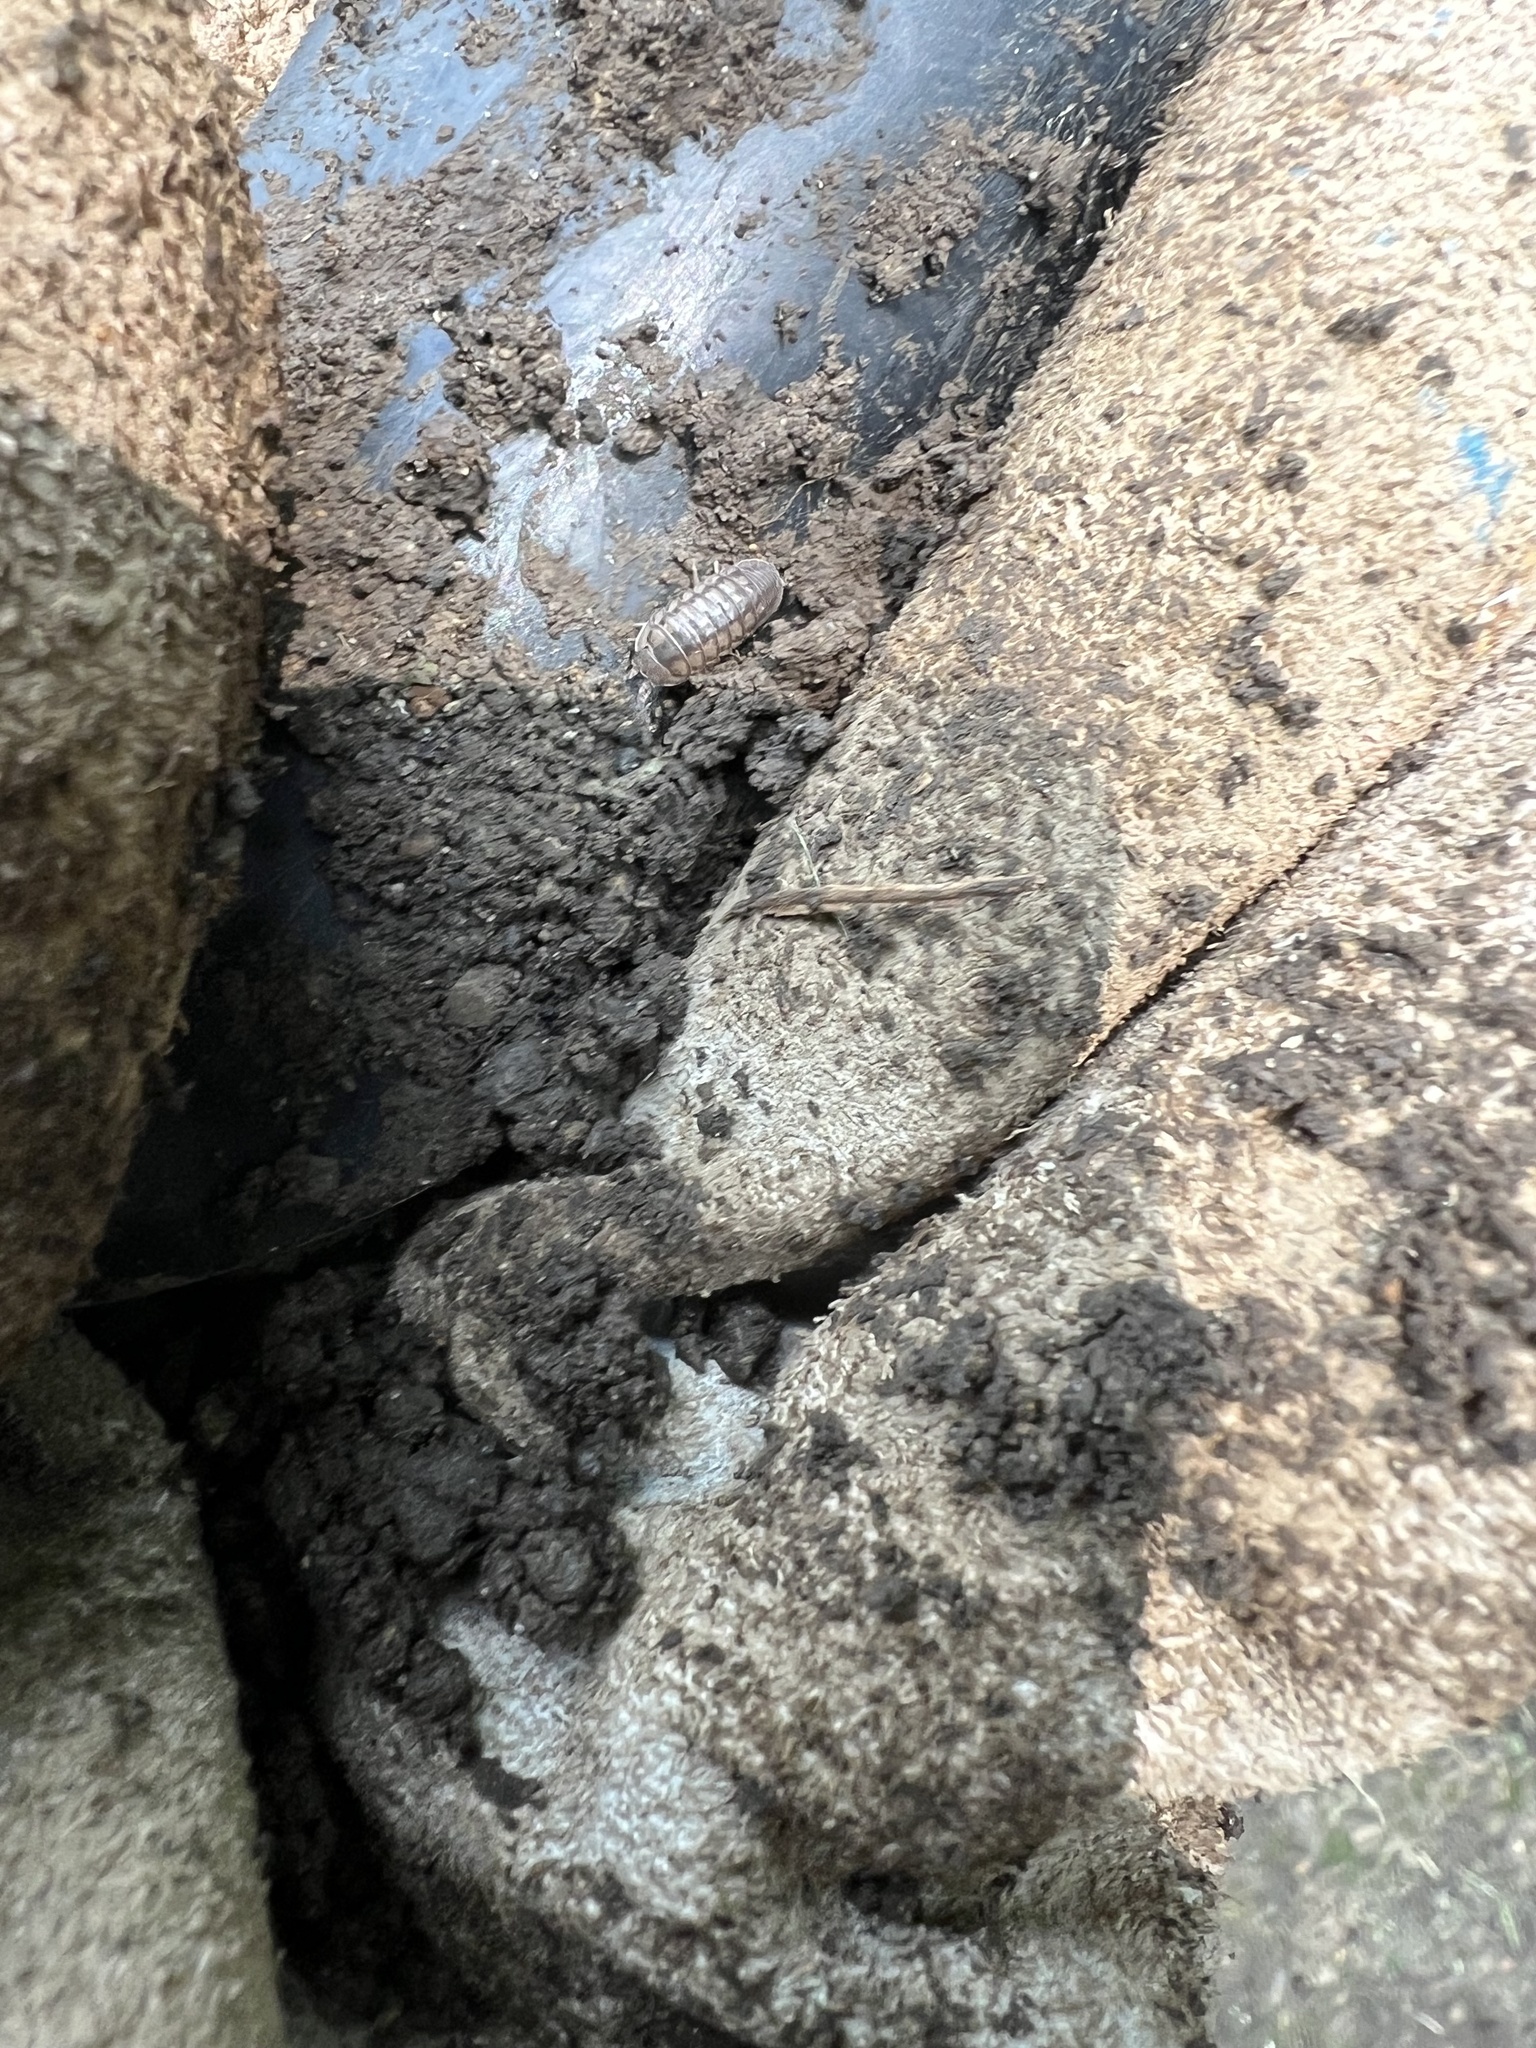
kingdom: Animalia
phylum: Arthropoda
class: Malacostraca
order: Isopoda
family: Armadillidiidae
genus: Armadillidium
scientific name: Armadillidium nasatum
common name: Isopod
